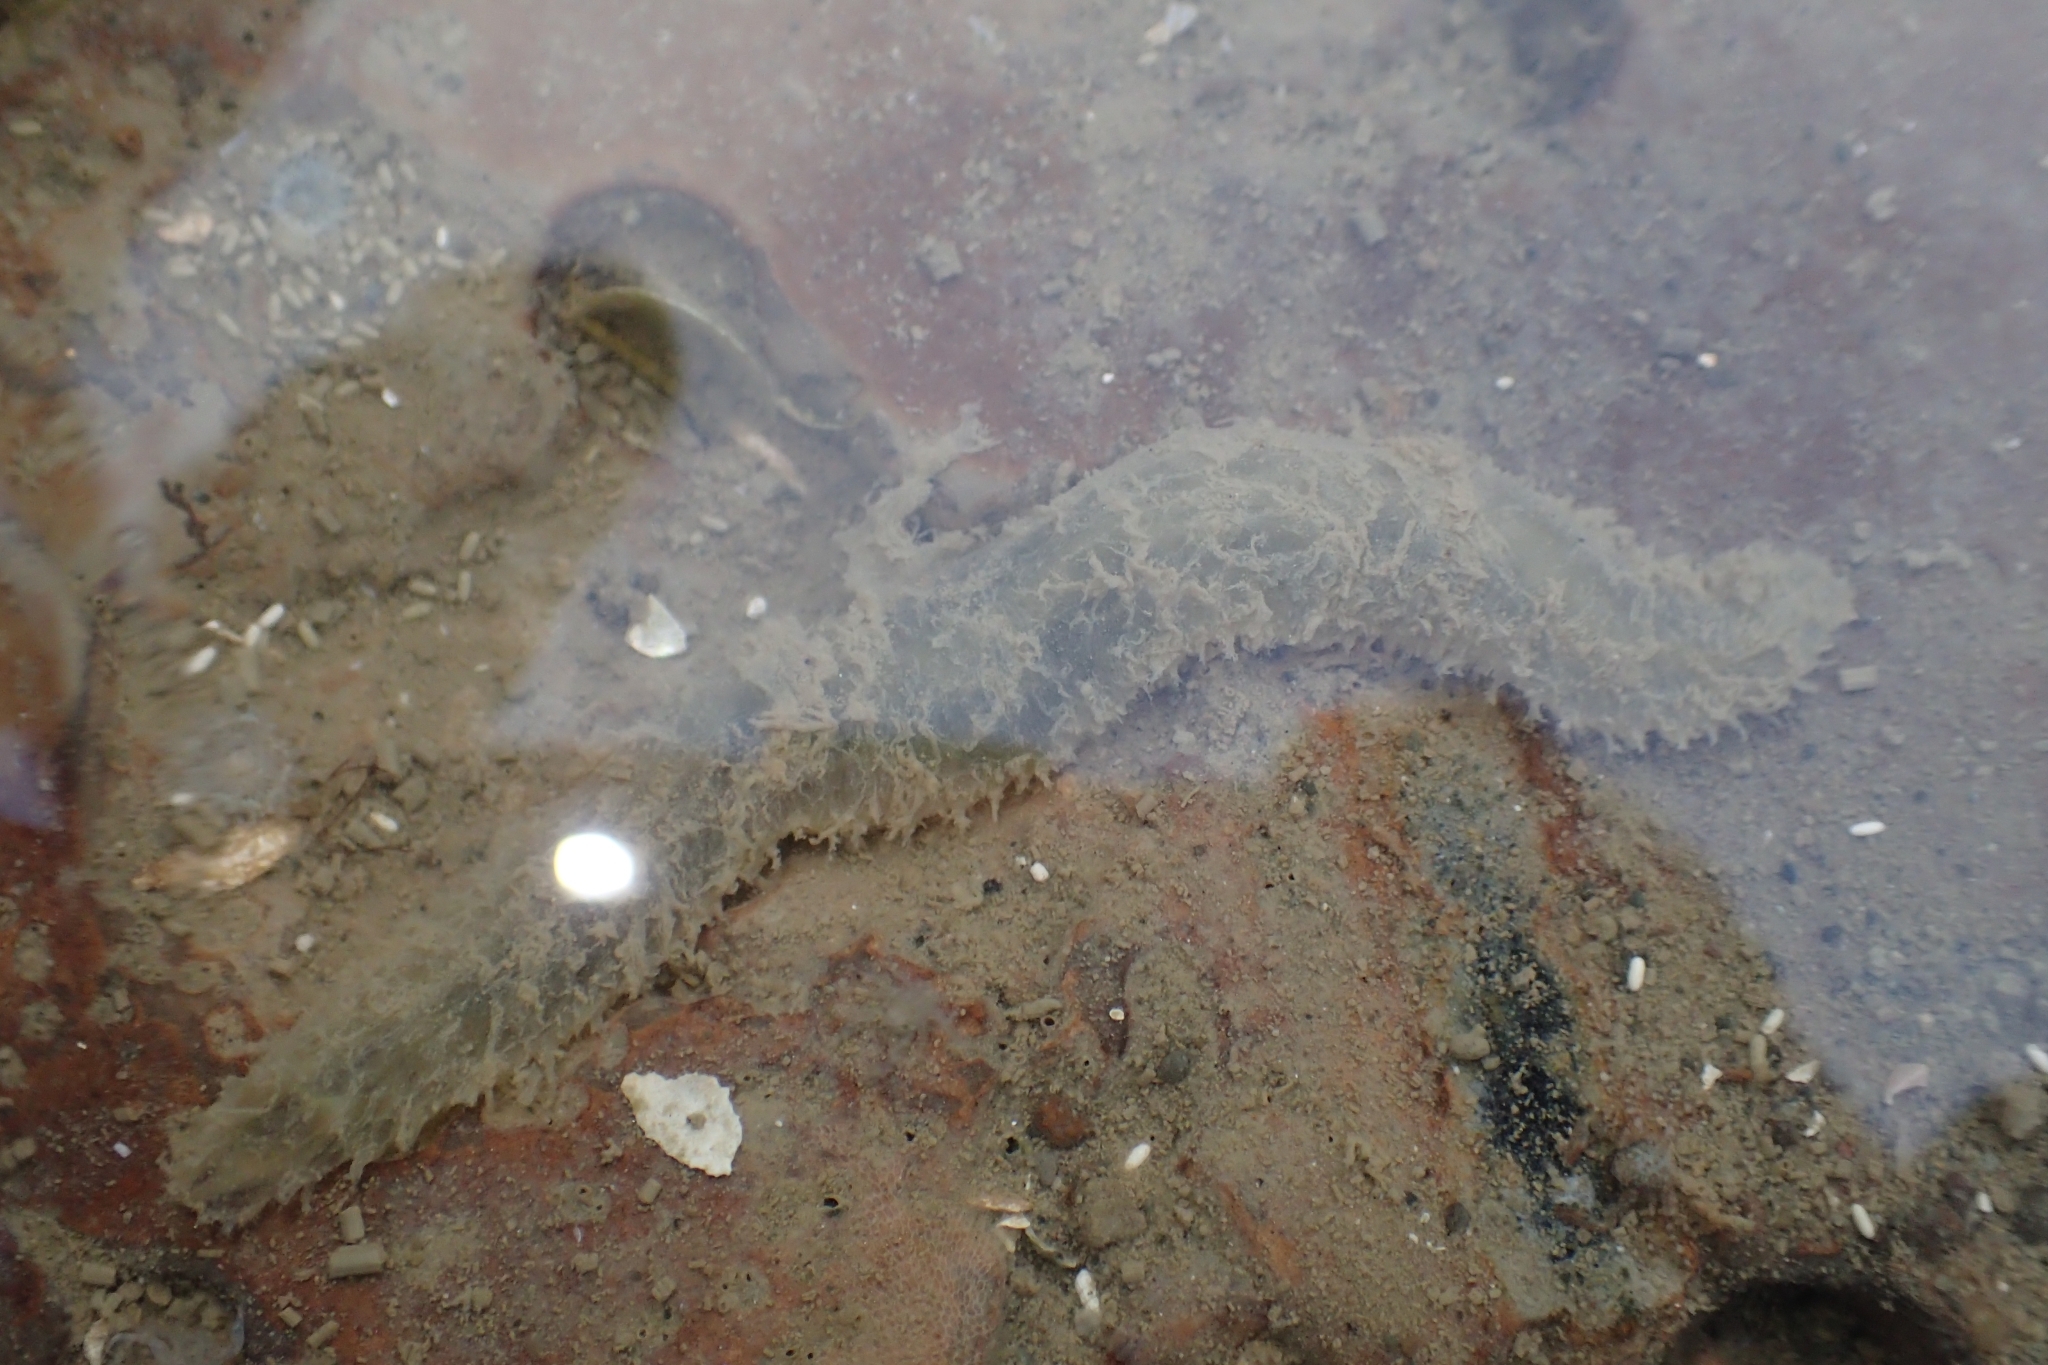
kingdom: Animalia
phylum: Annelida
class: Polychaeta
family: Flabelligeridae
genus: Flabelligera
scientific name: Flabelligera bicolor
